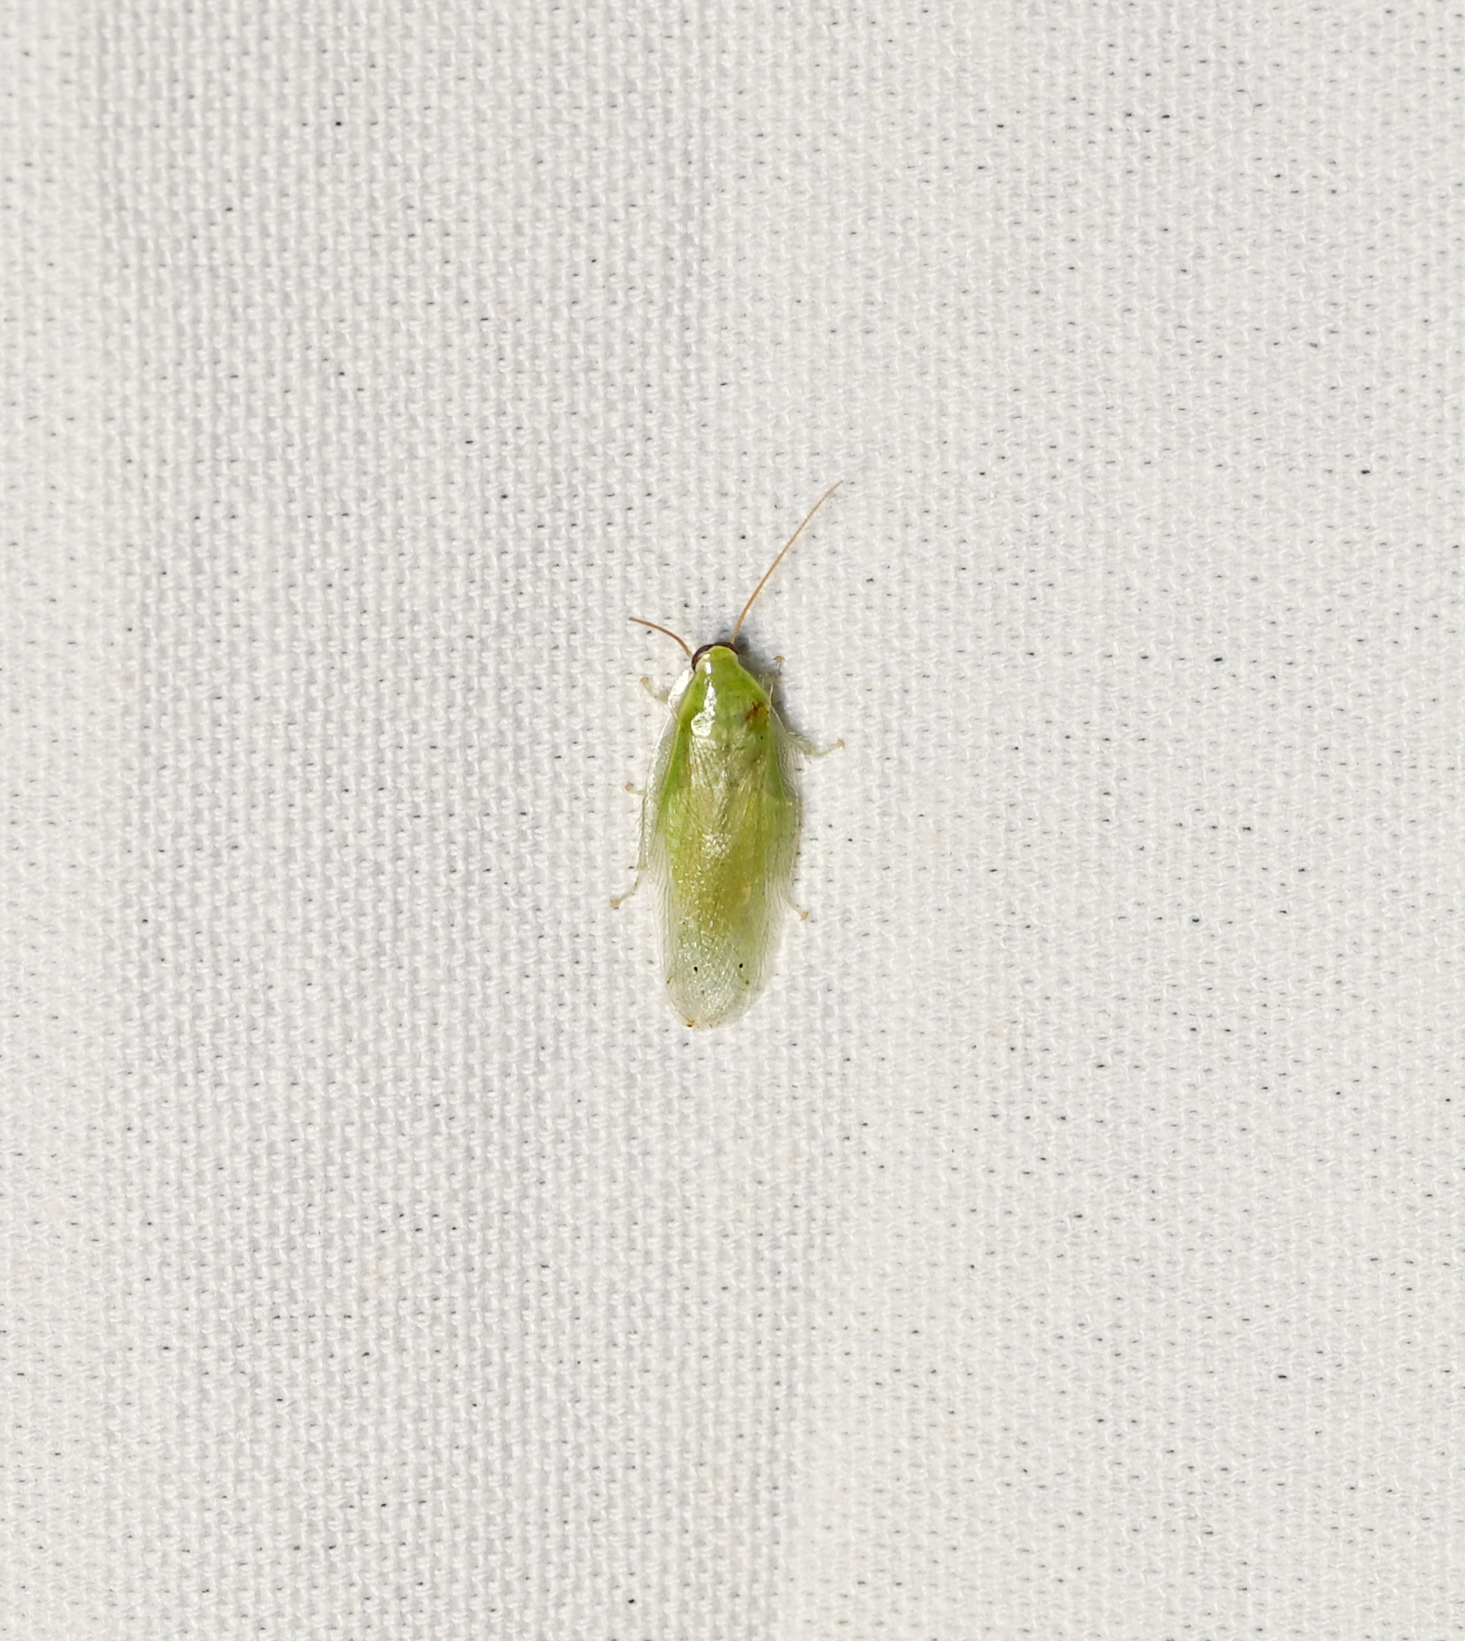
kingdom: Animalia
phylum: Arthropoda
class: Insecta
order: Blattodea
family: Blaberidae
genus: Panchlora
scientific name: Panchlora nivea
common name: Cuban cockroach
